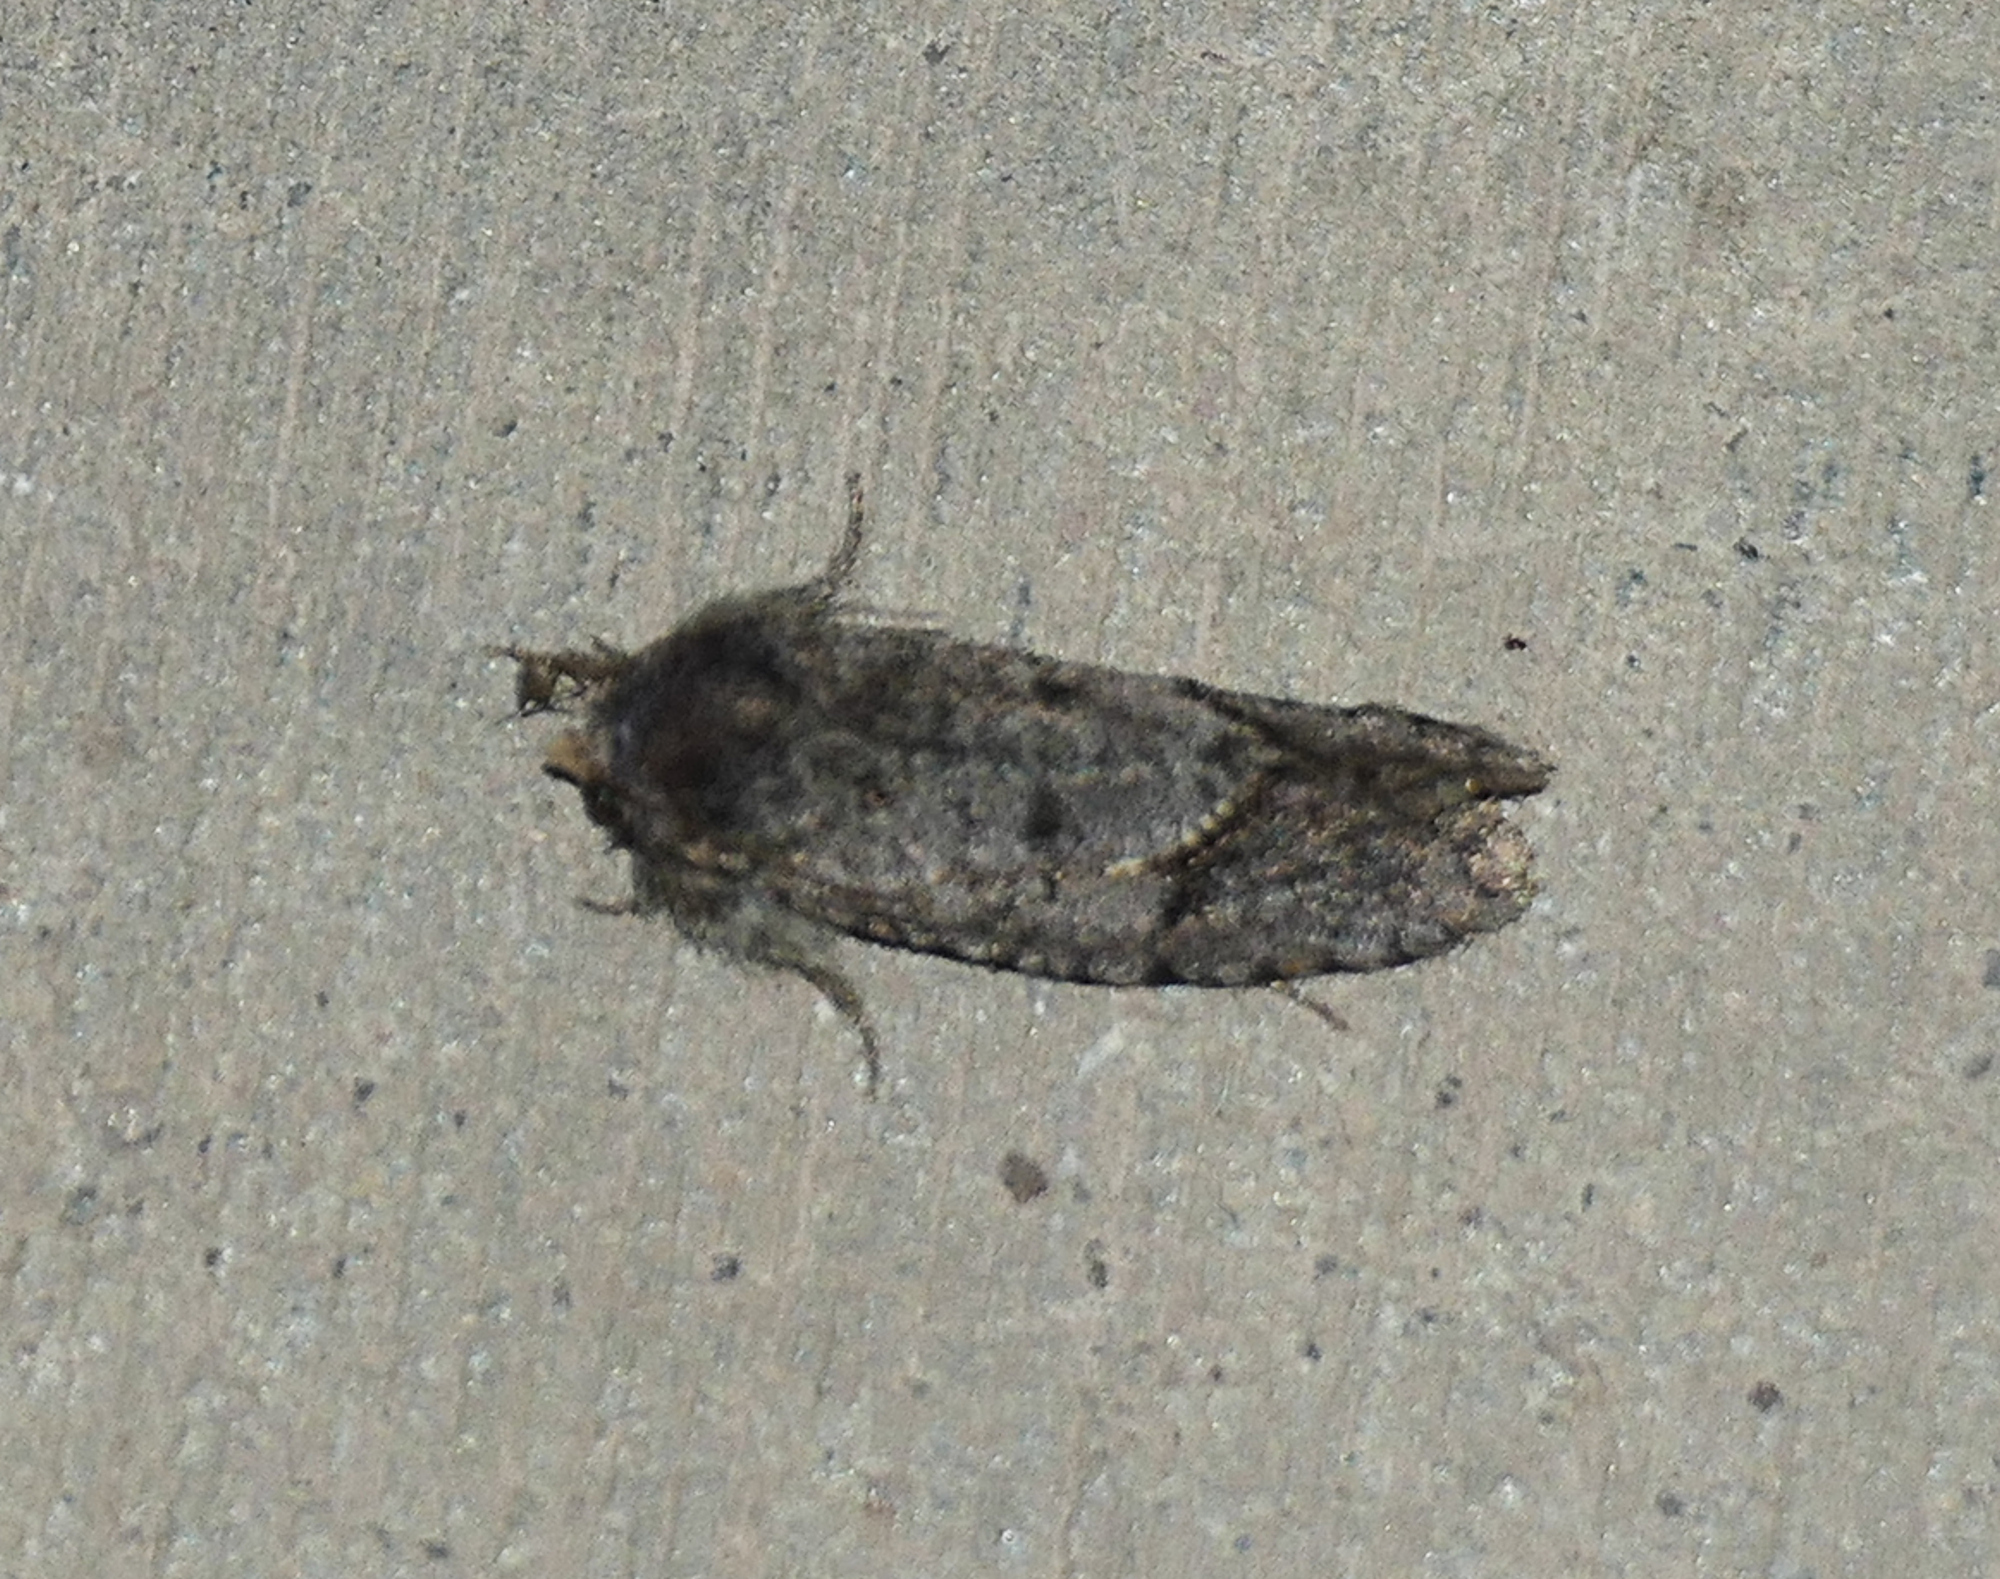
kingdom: Animalia
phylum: Arthropoda
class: Insecta
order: Lepidoptera
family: Tineidae
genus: Acrolophus
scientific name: Acrolophus filicornis
